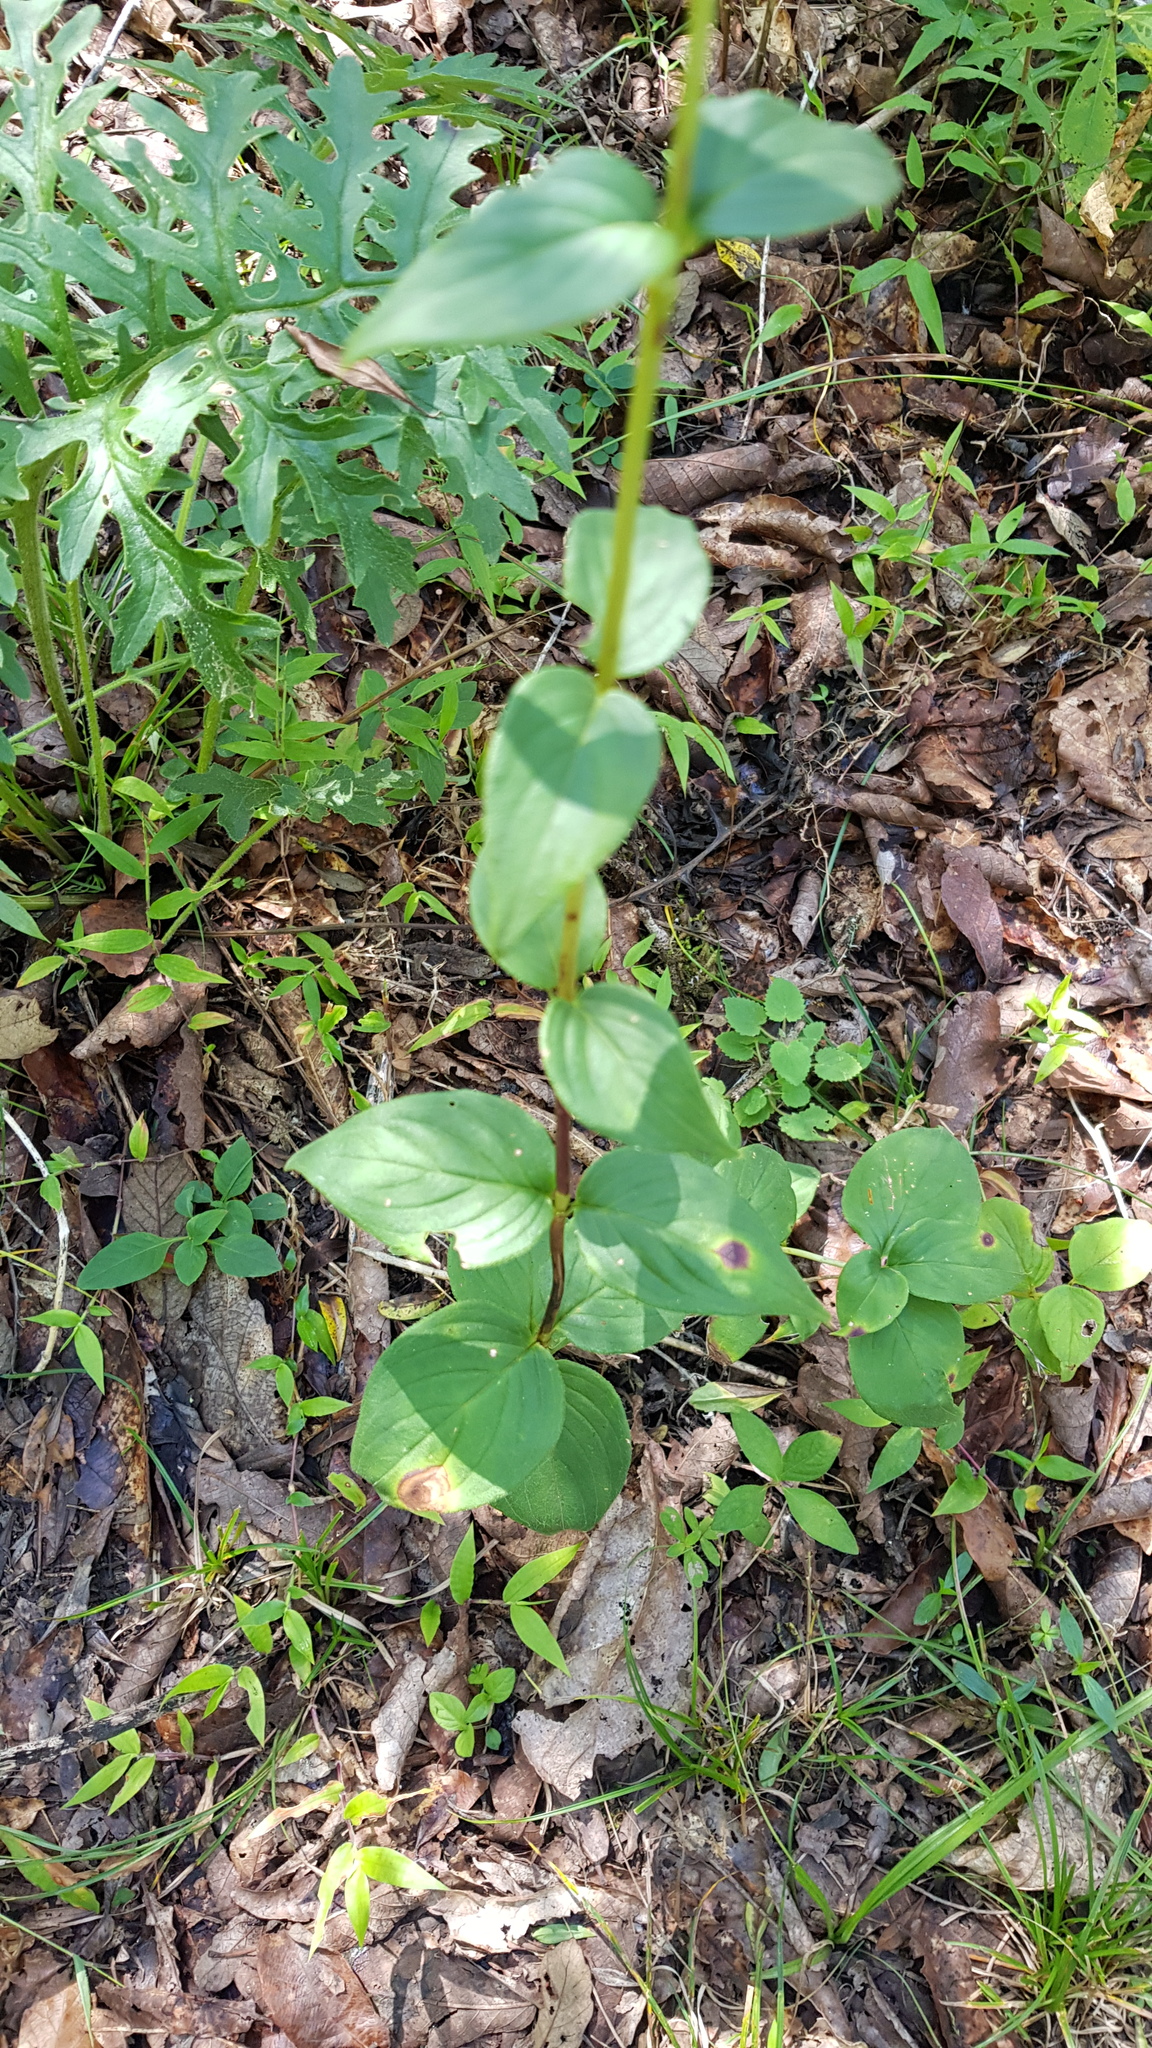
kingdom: Plantae
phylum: Tracheophyta
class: Magnoliopsida
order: Gentianales
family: Rubiaceae
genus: Bouvardia
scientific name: Bouvardia laevis
